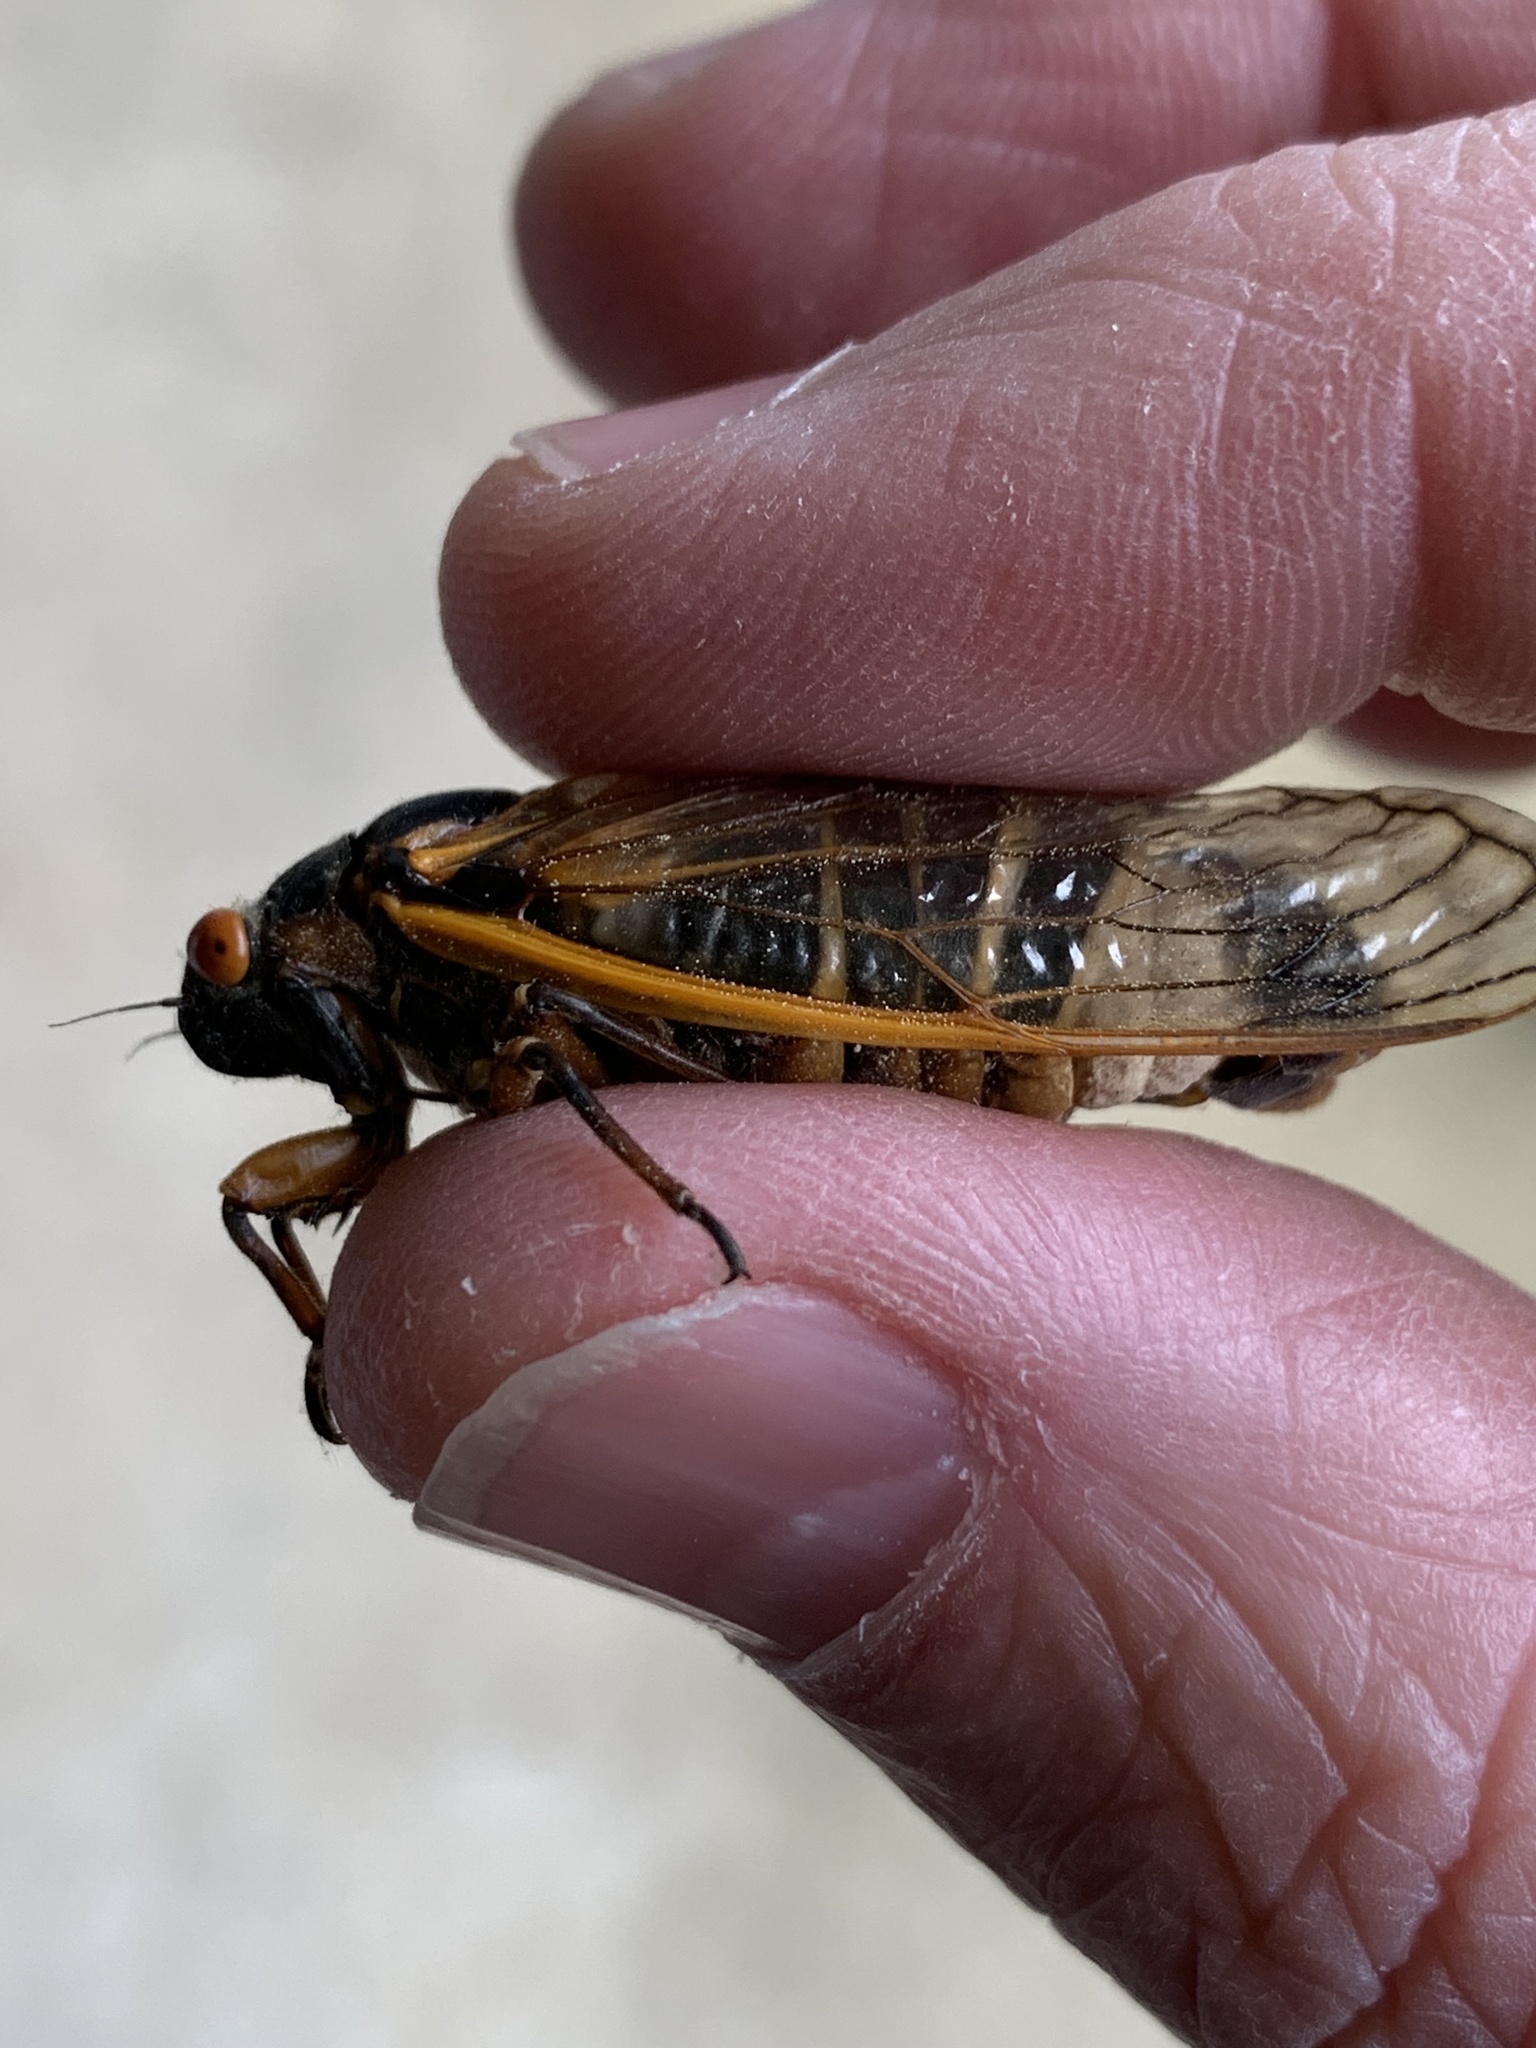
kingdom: Fungi
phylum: Entomophthoromycota
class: Entomophthoromycetes
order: Entomophthorales
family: Entomophthoraceae
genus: Massospora
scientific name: Massospora cicadina
